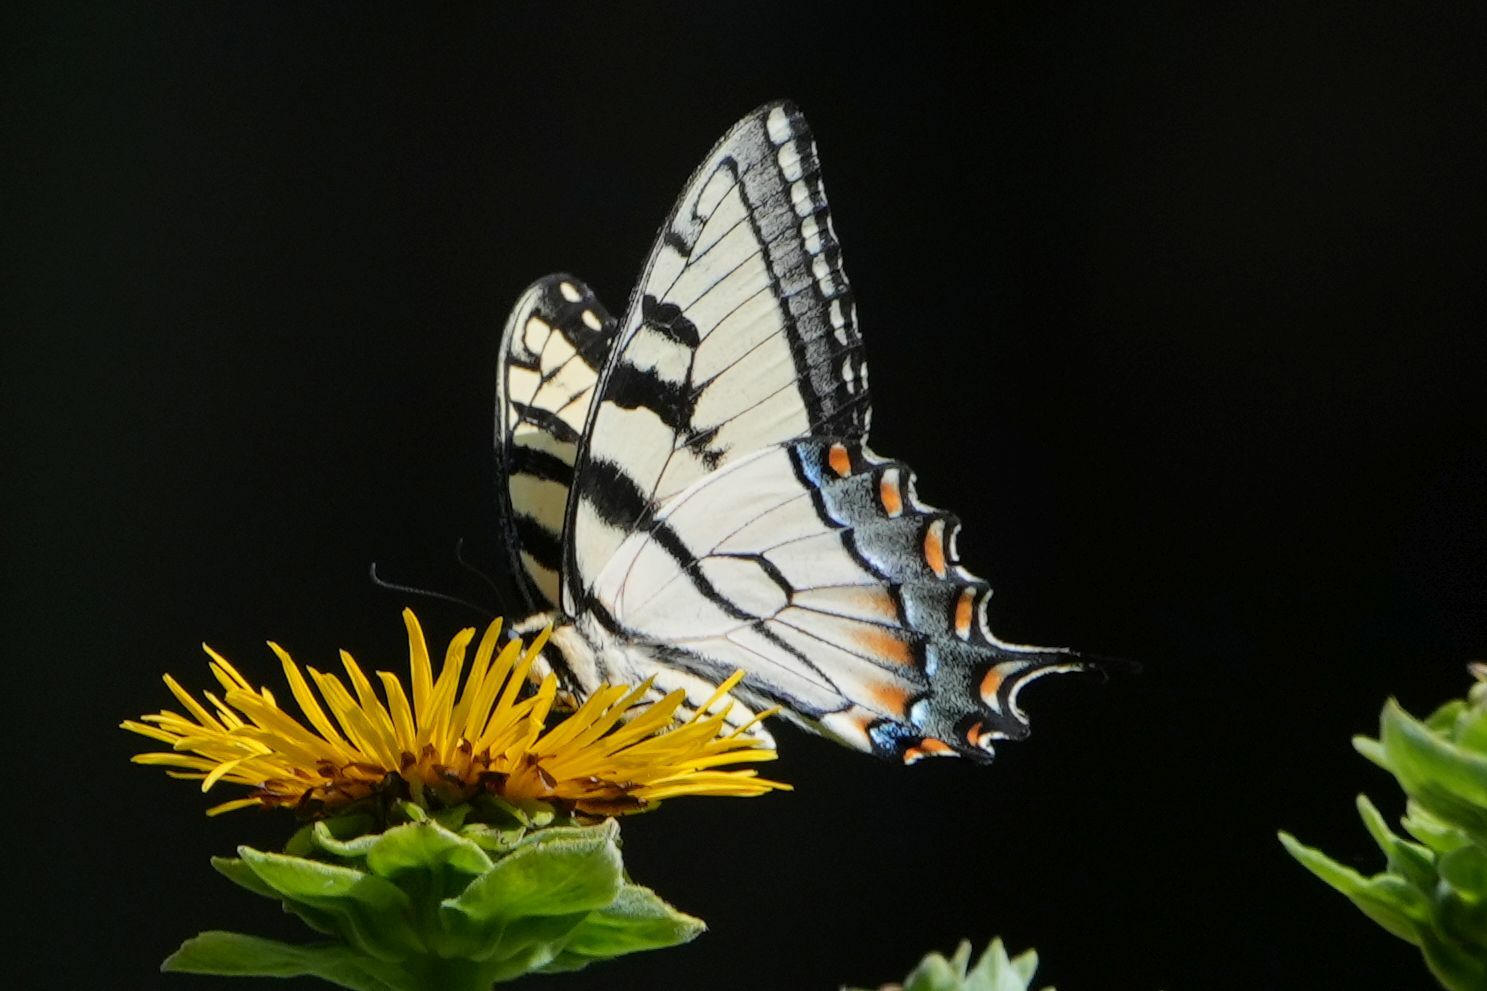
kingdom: Animalia
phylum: Arthropoda
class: Insecta
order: Lepidoptera
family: Papilionidae
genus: Papilio
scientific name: Papilio
